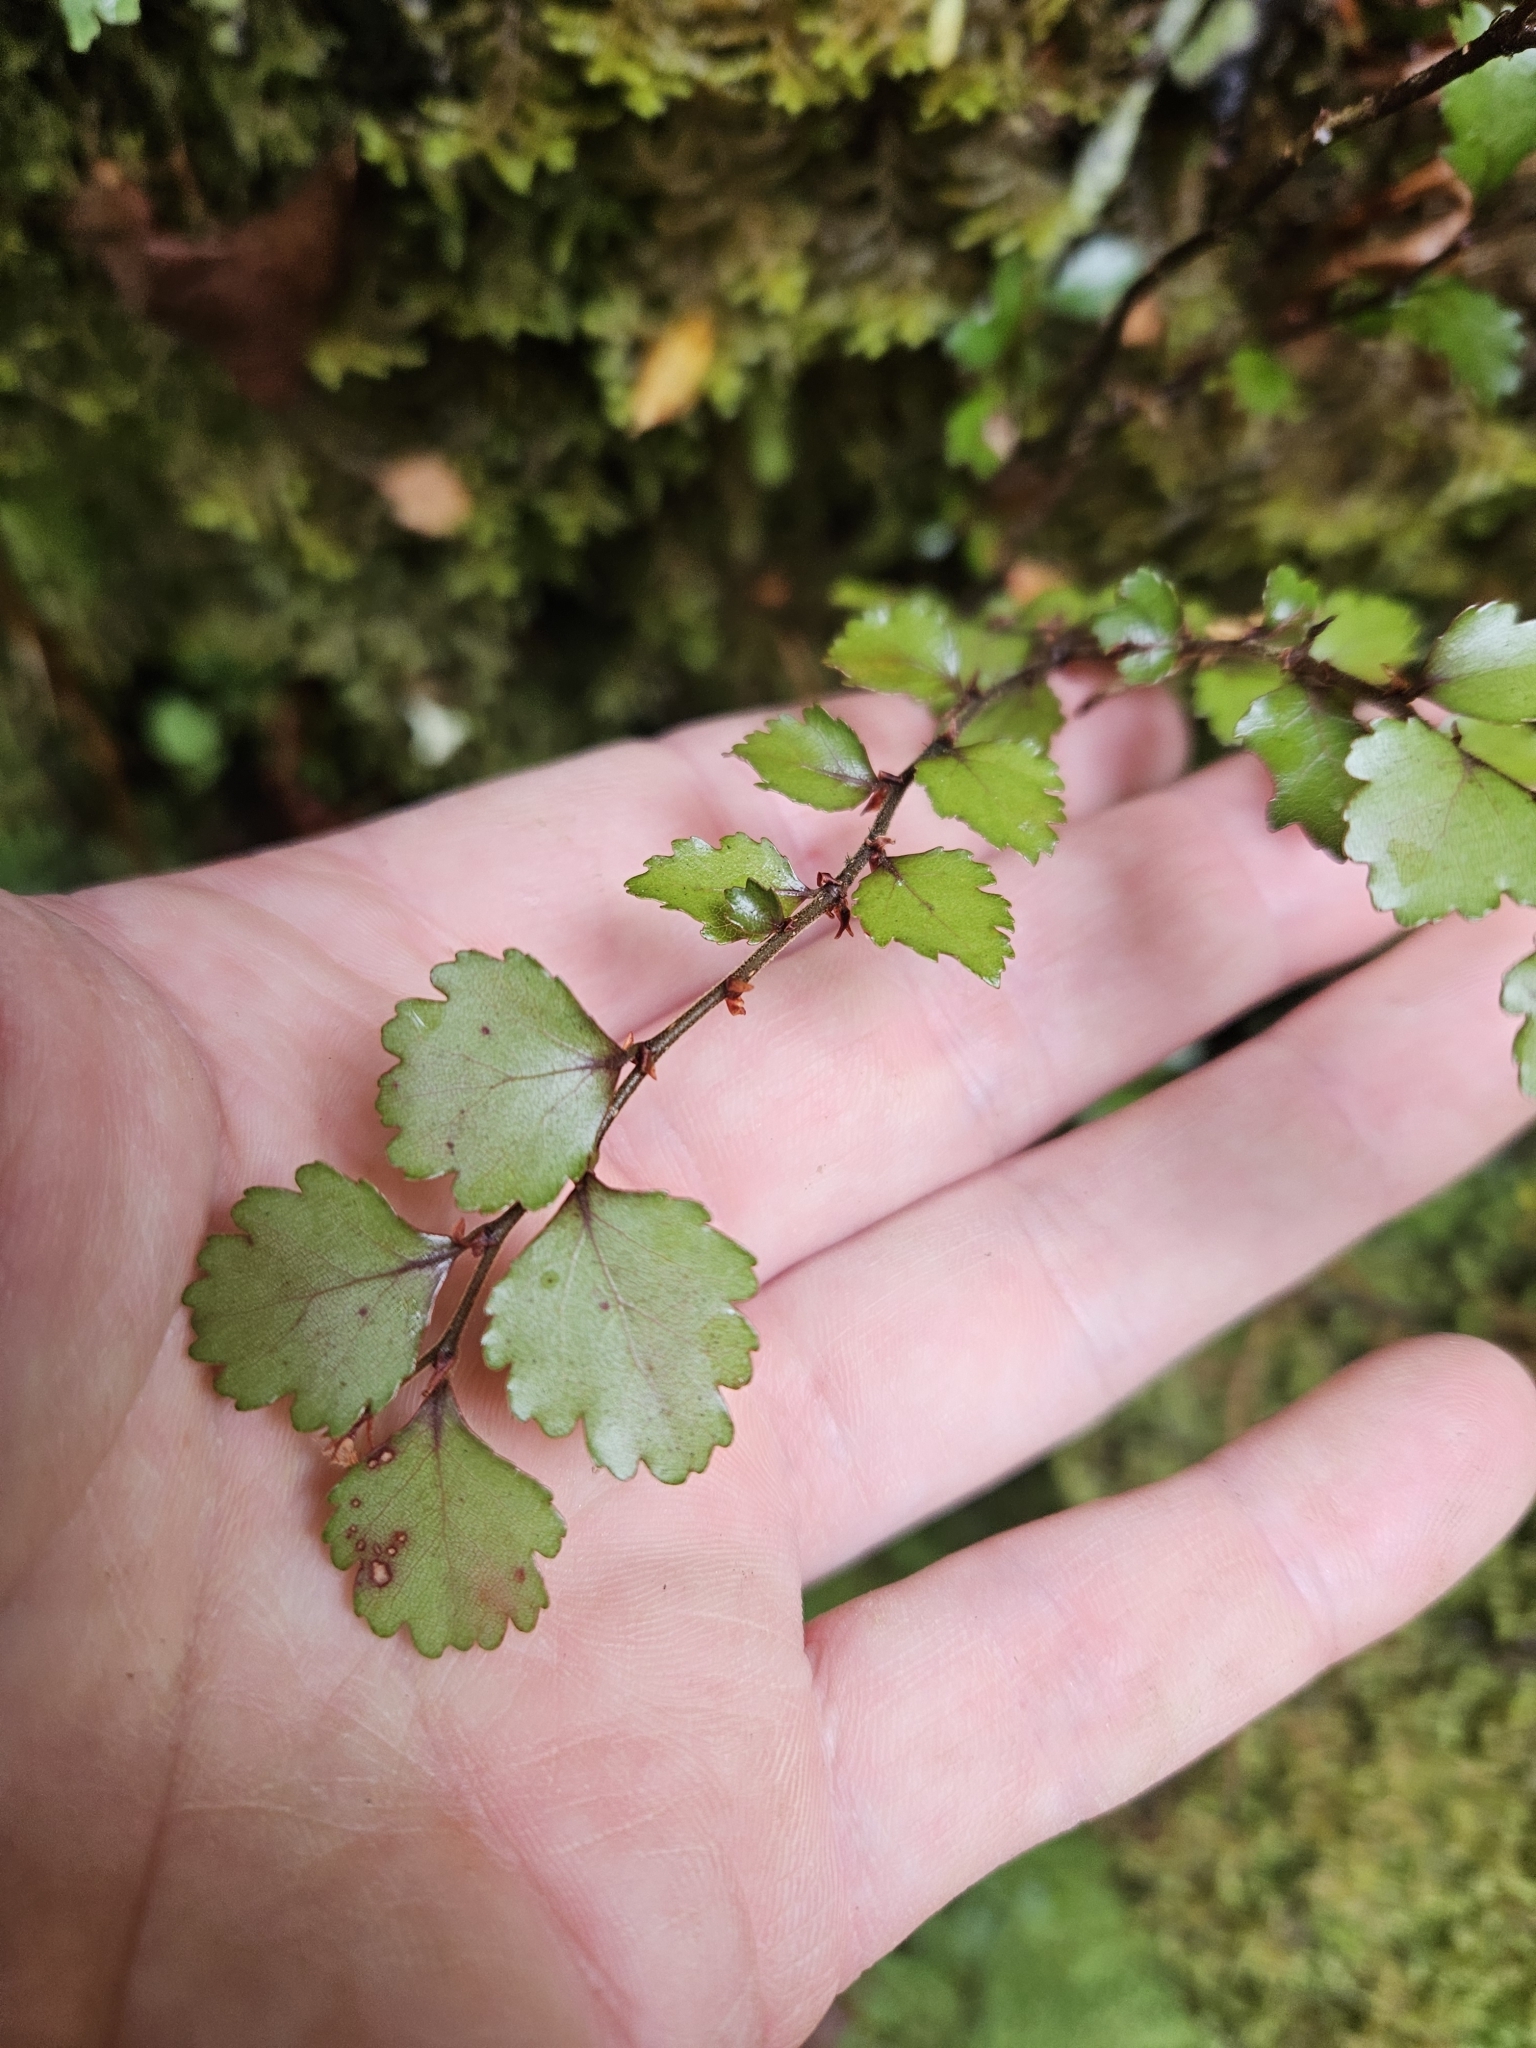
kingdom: Plantae
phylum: Tracheophyta
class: Magnoliopsida
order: Fagales
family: Nothofagaceae
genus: Nothofagus
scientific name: Nothofagus menziesii
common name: Silver beech
